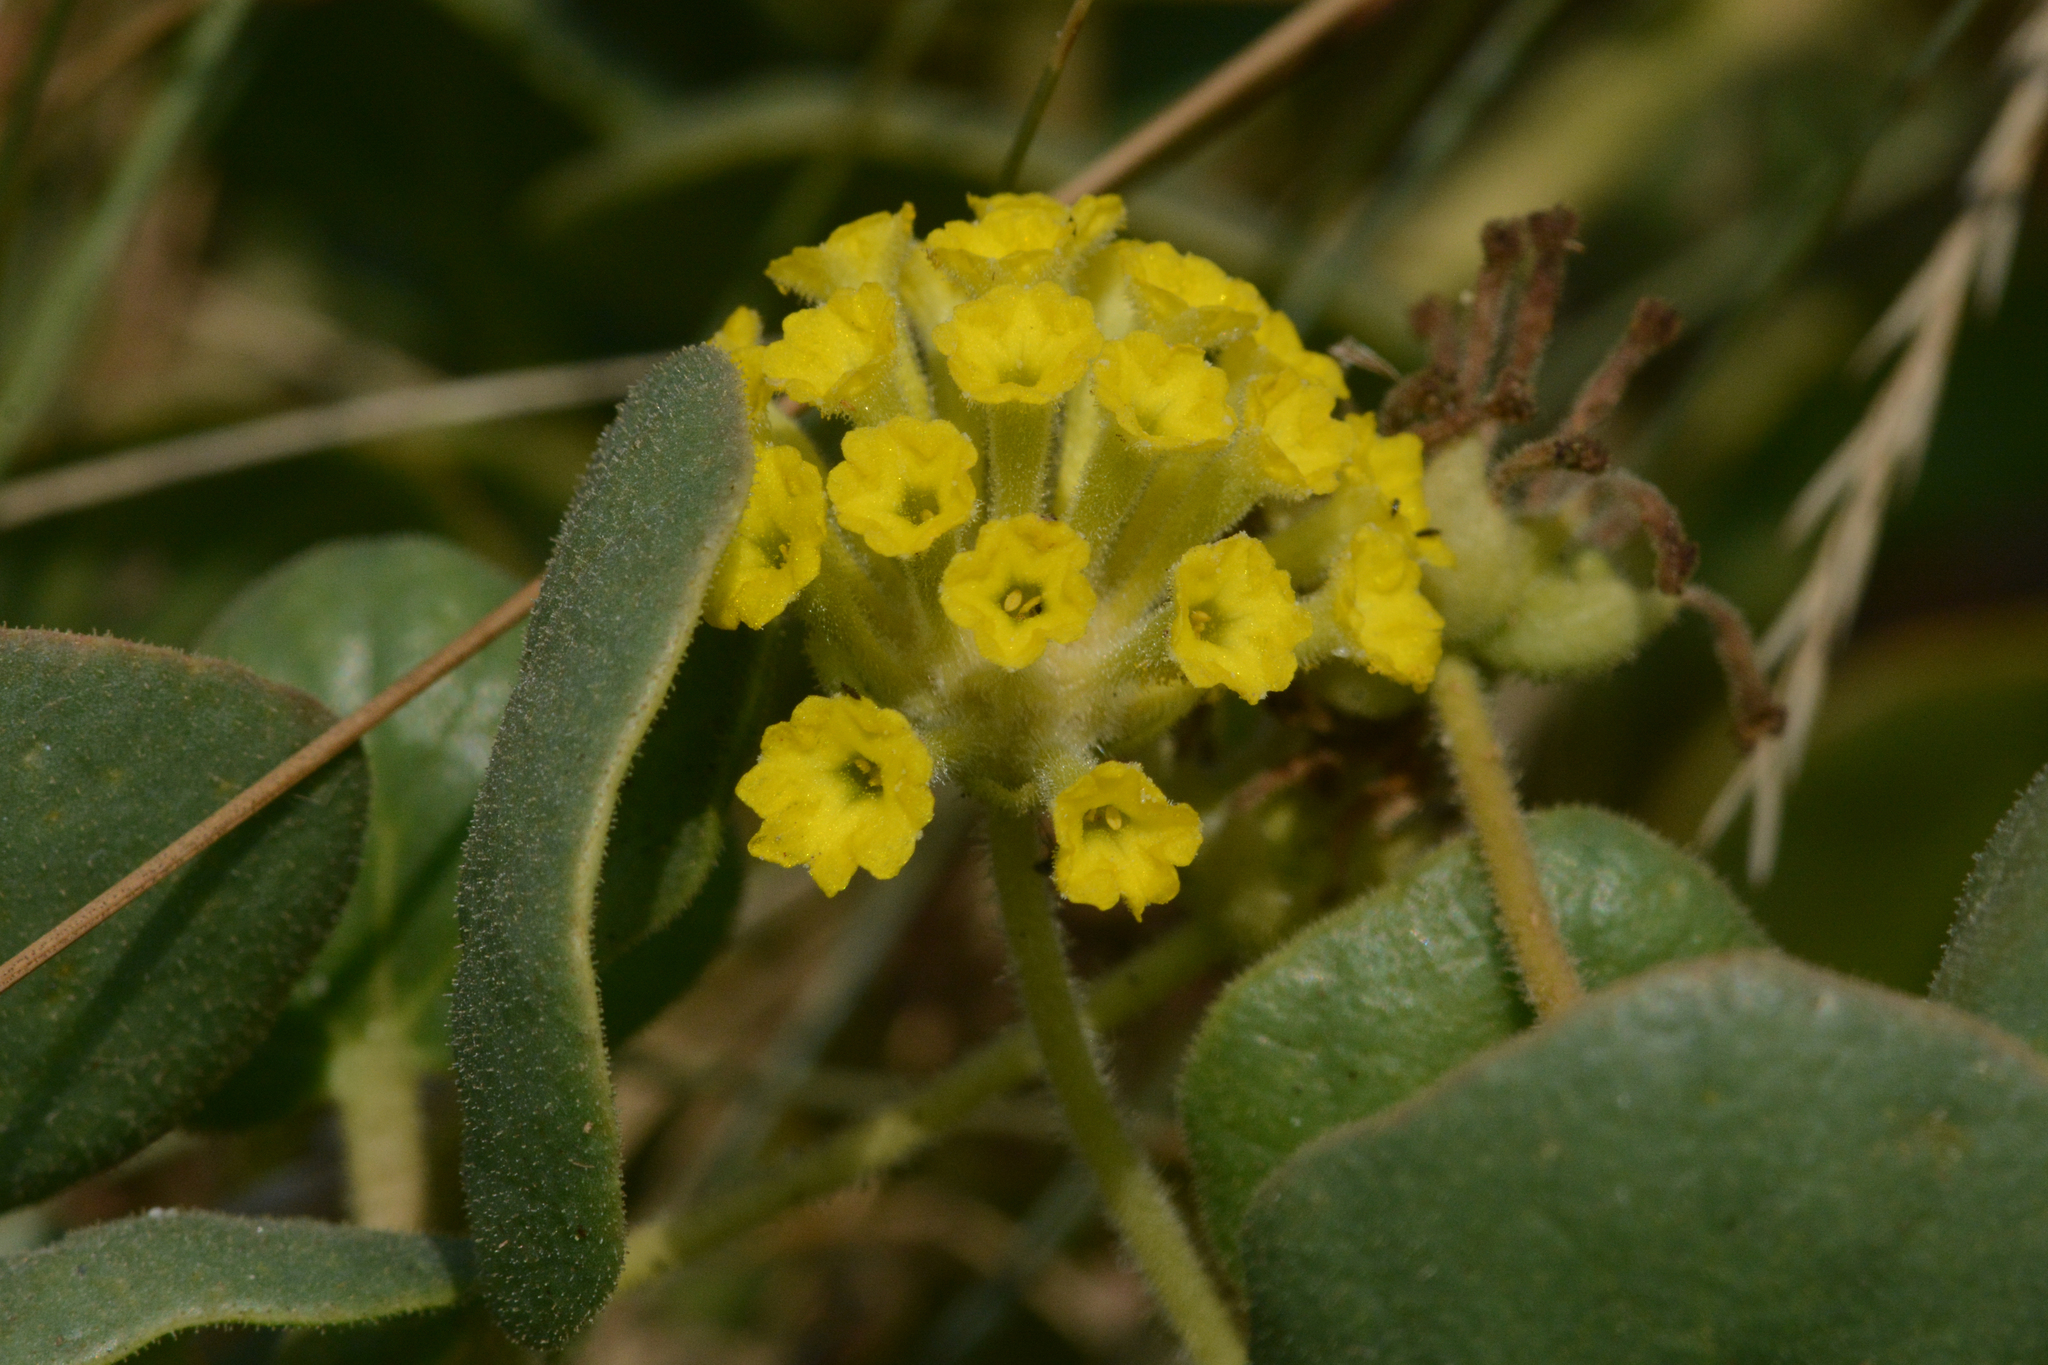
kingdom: Plantae
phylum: Tracheophyta
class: Magnoliopsida
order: Caryophyllales
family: Nyctaginaceae
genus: Abronia
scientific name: Abronia latifolia
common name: Yellow sand-verbena
